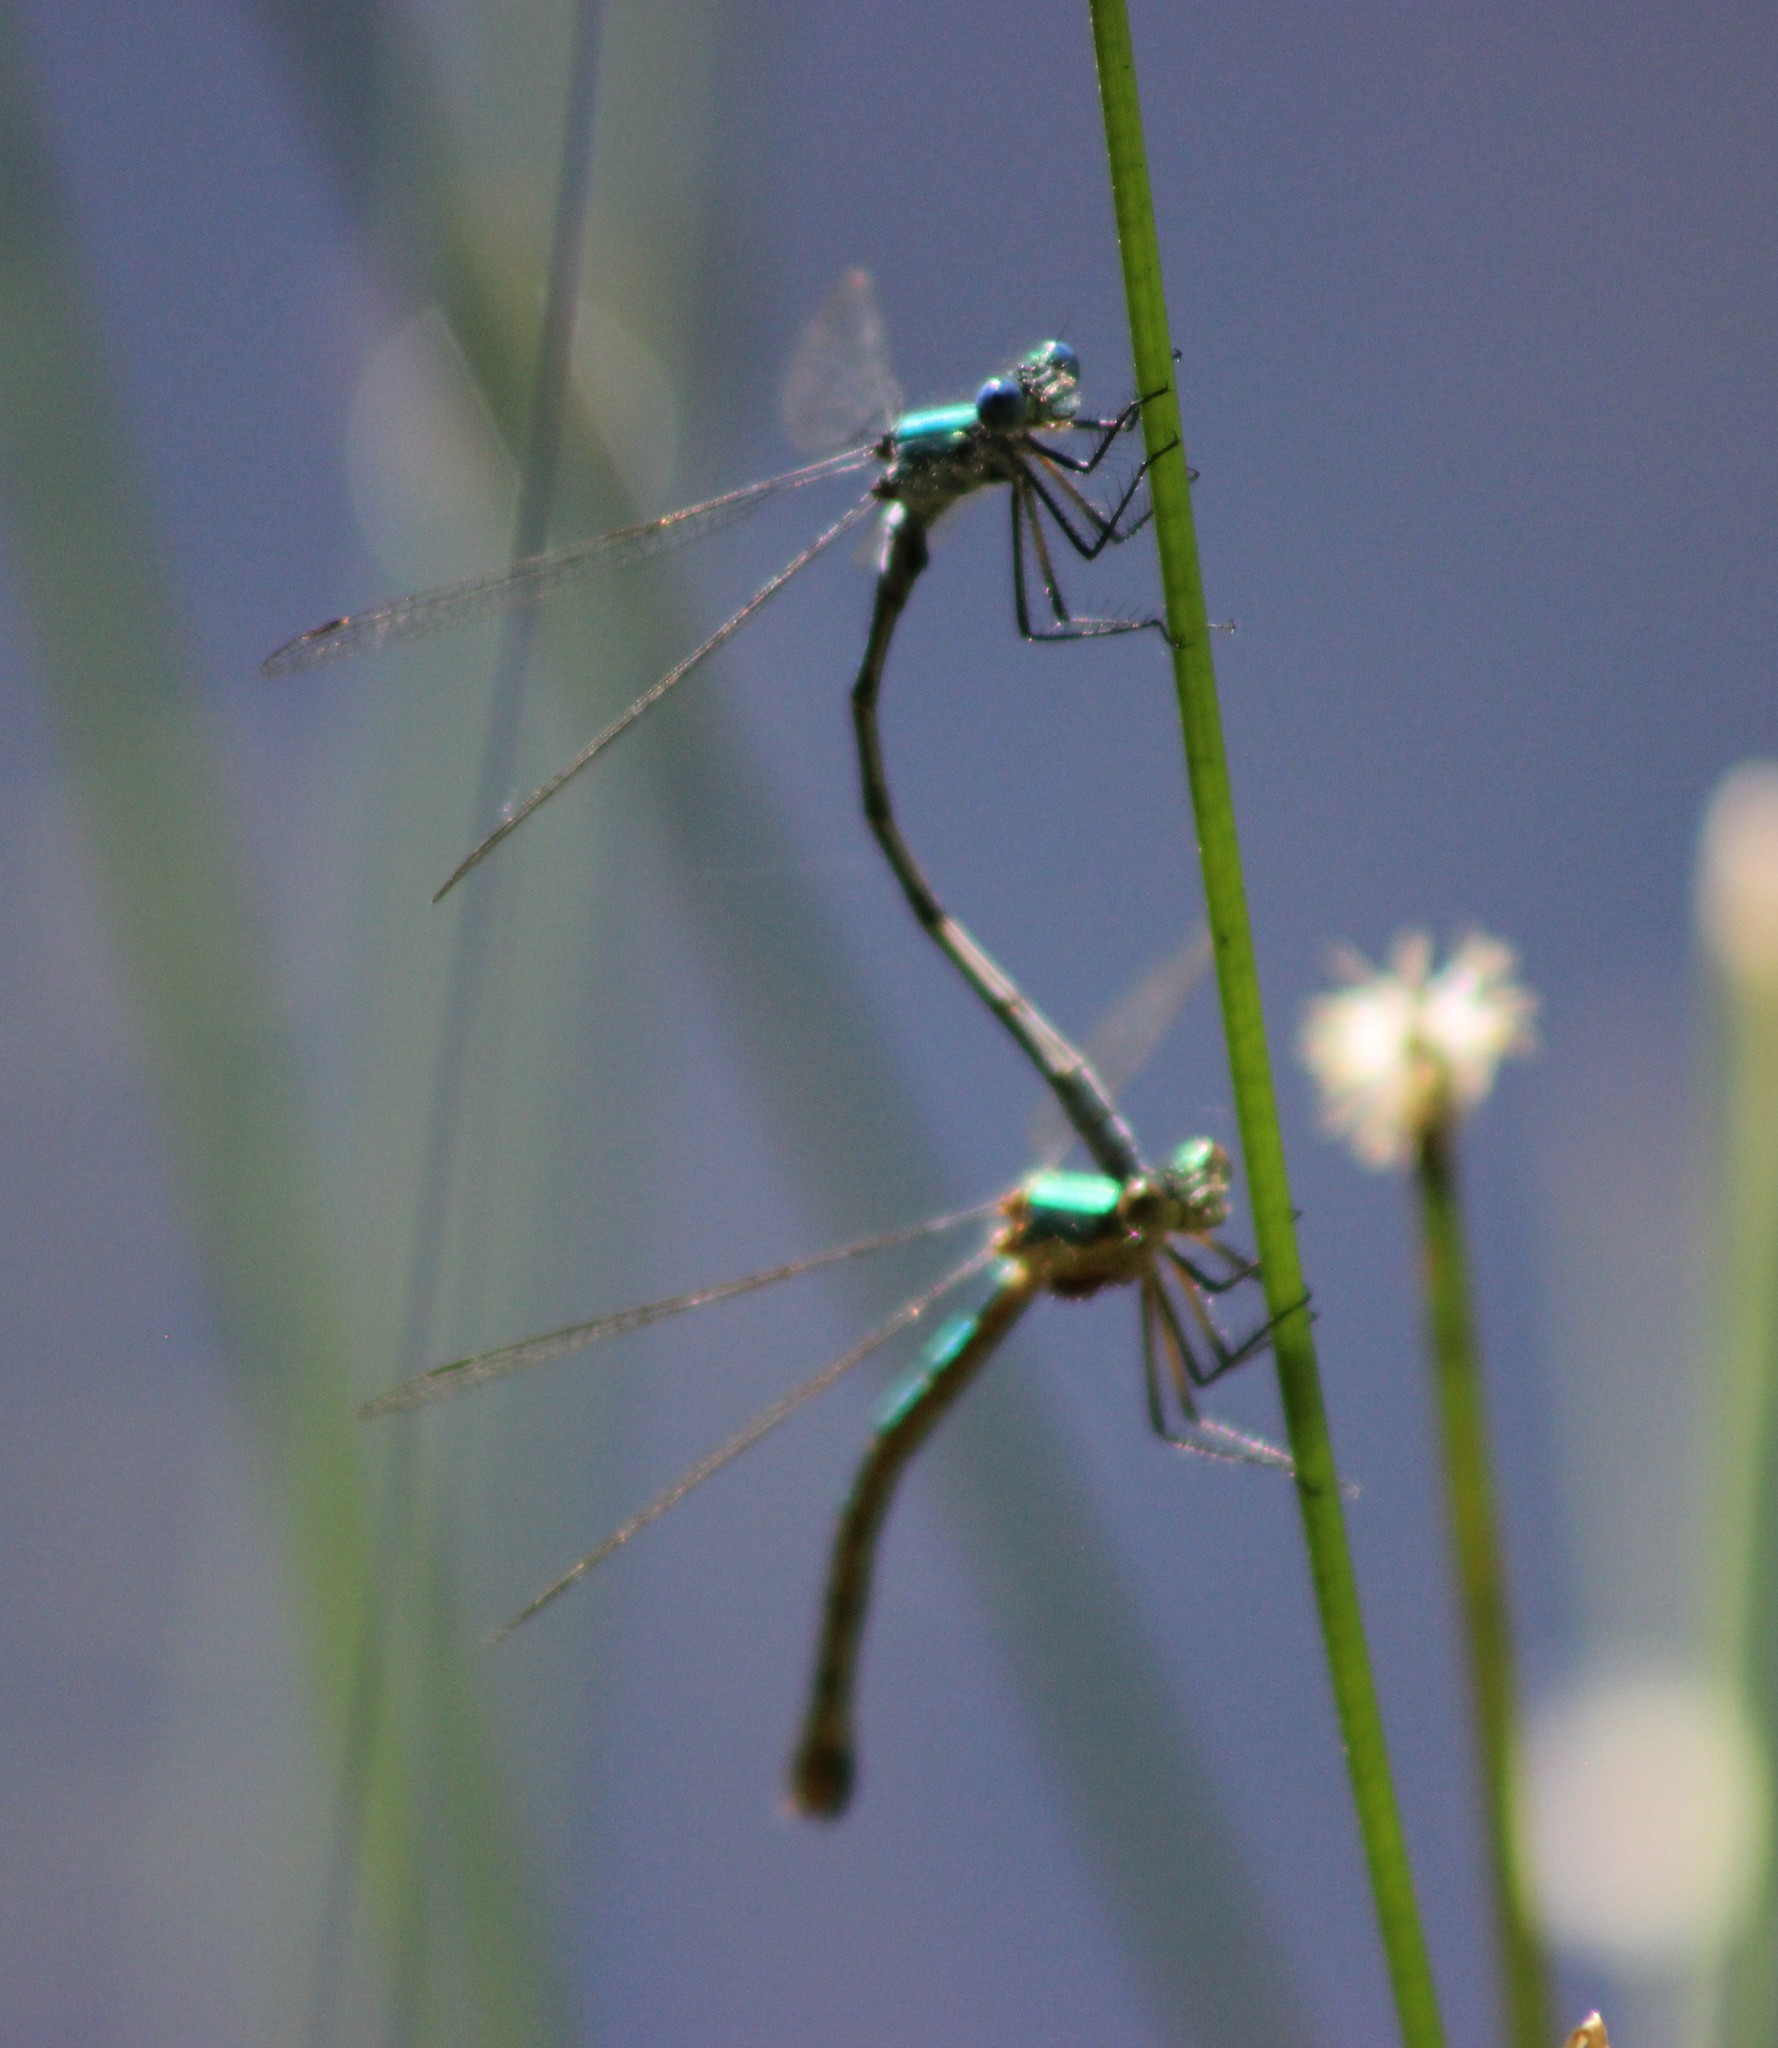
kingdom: Animalia
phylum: Arthropoda
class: Insecta
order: Odonata
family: Lestidae
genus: Lestes
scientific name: Lestes dryas
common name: Scarce emerald damselfly
